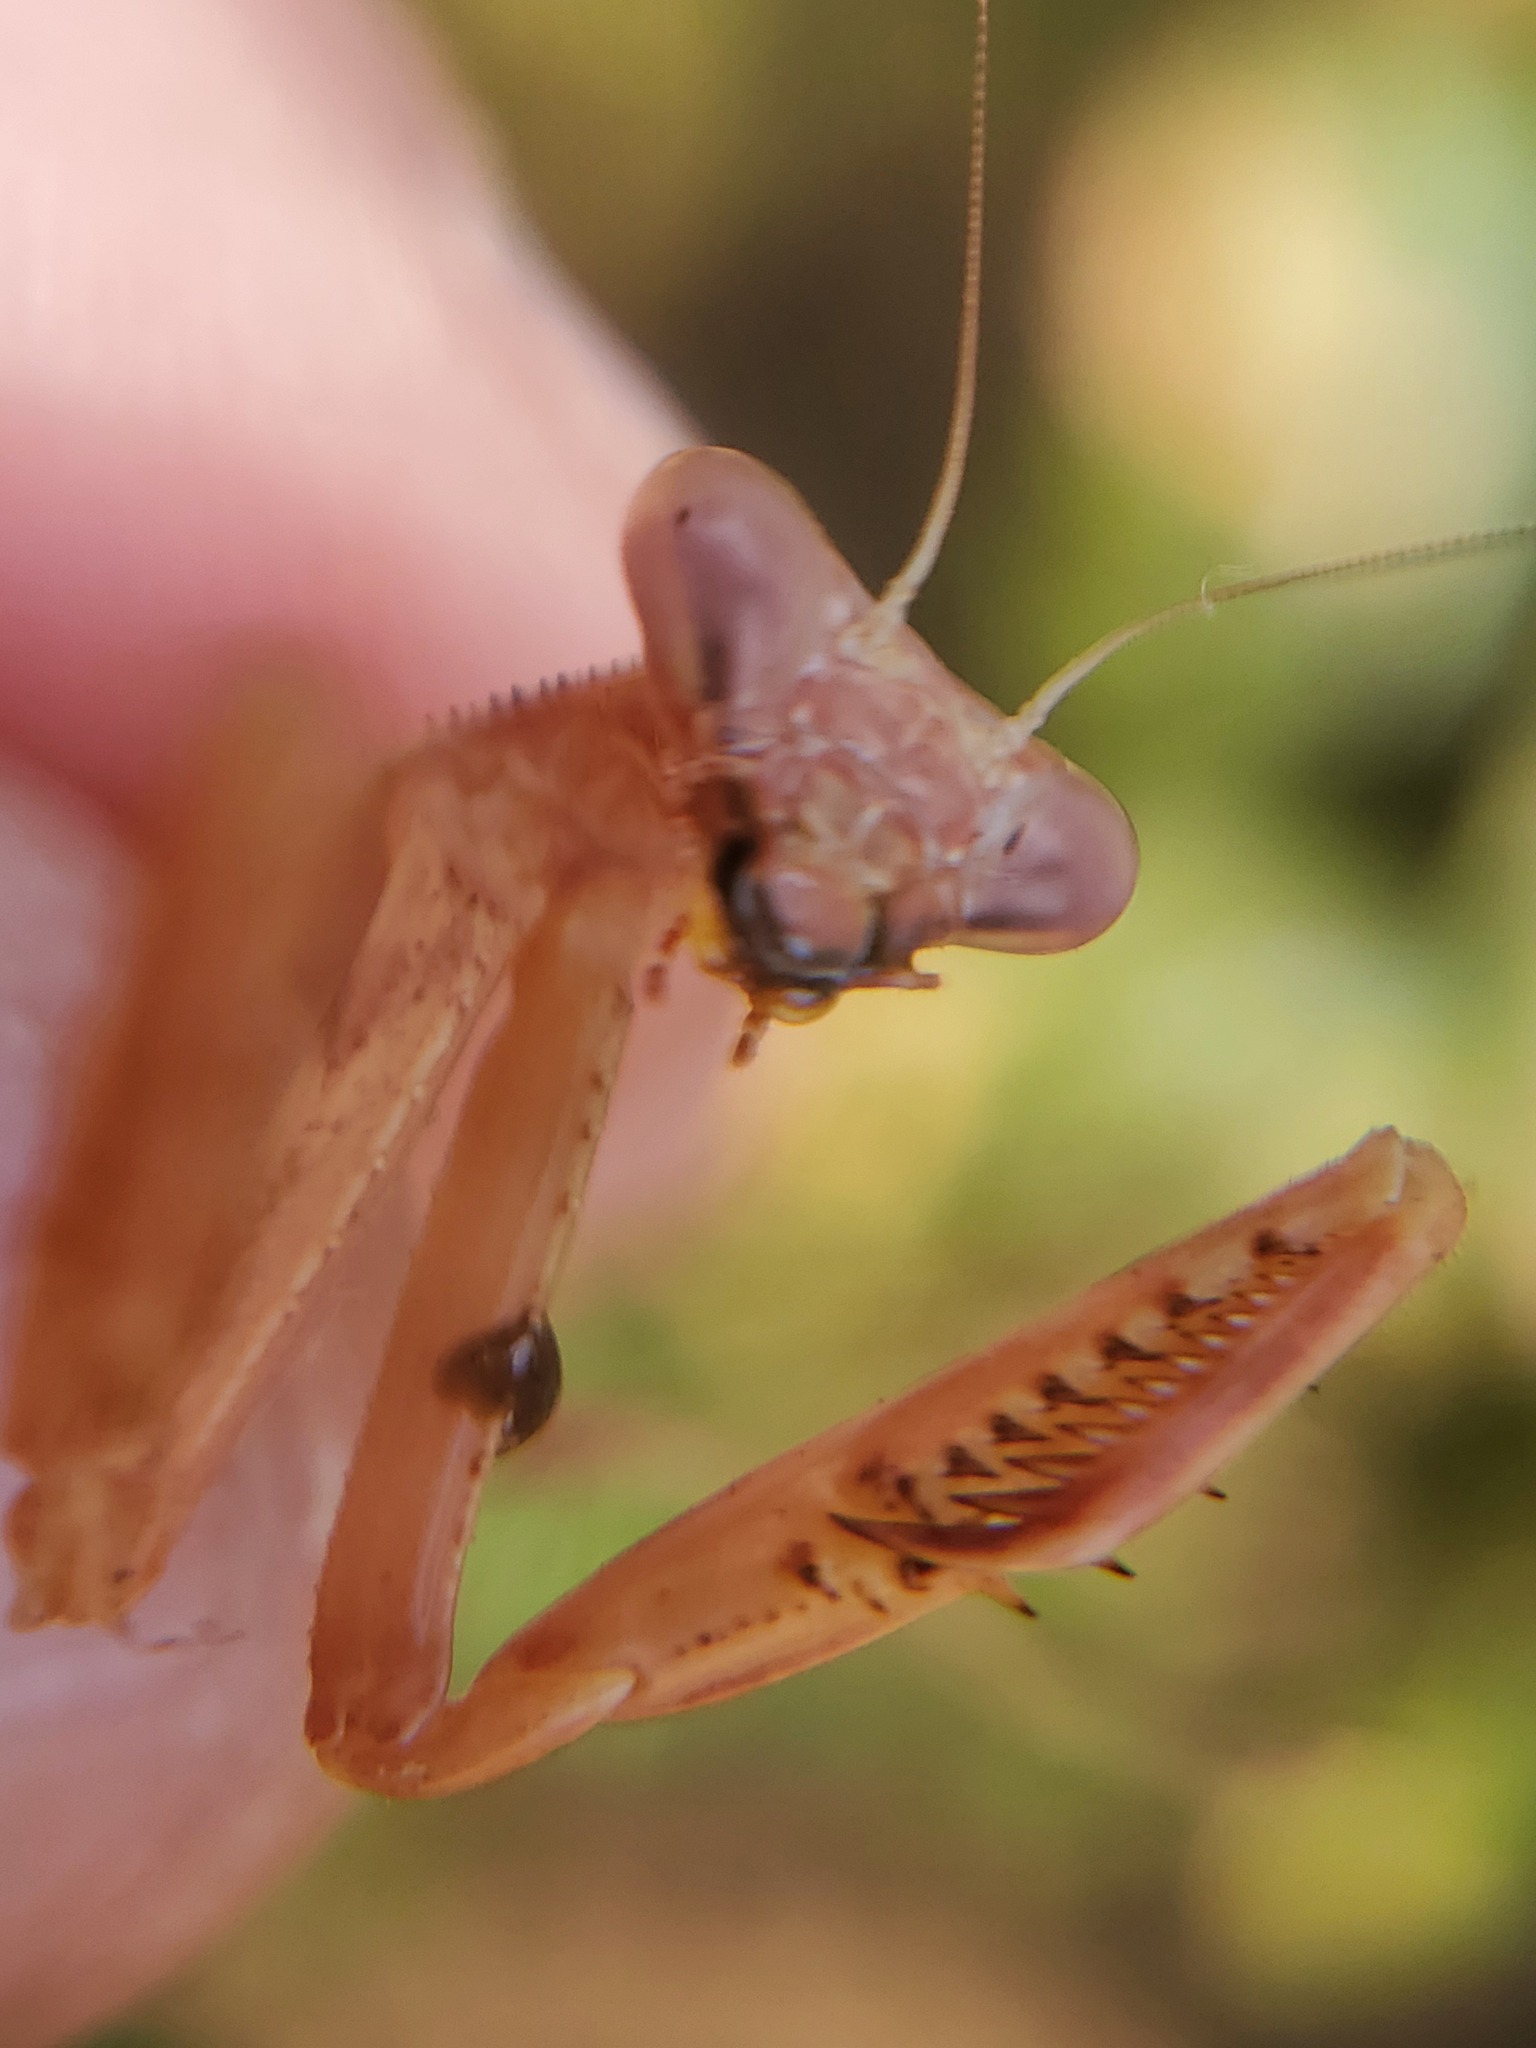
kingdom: Animalia
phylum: Arthropoda
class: Insecta
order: Mantodea
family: Mantidae
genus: Stagmomantis
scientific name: Stagmomantis limbata
